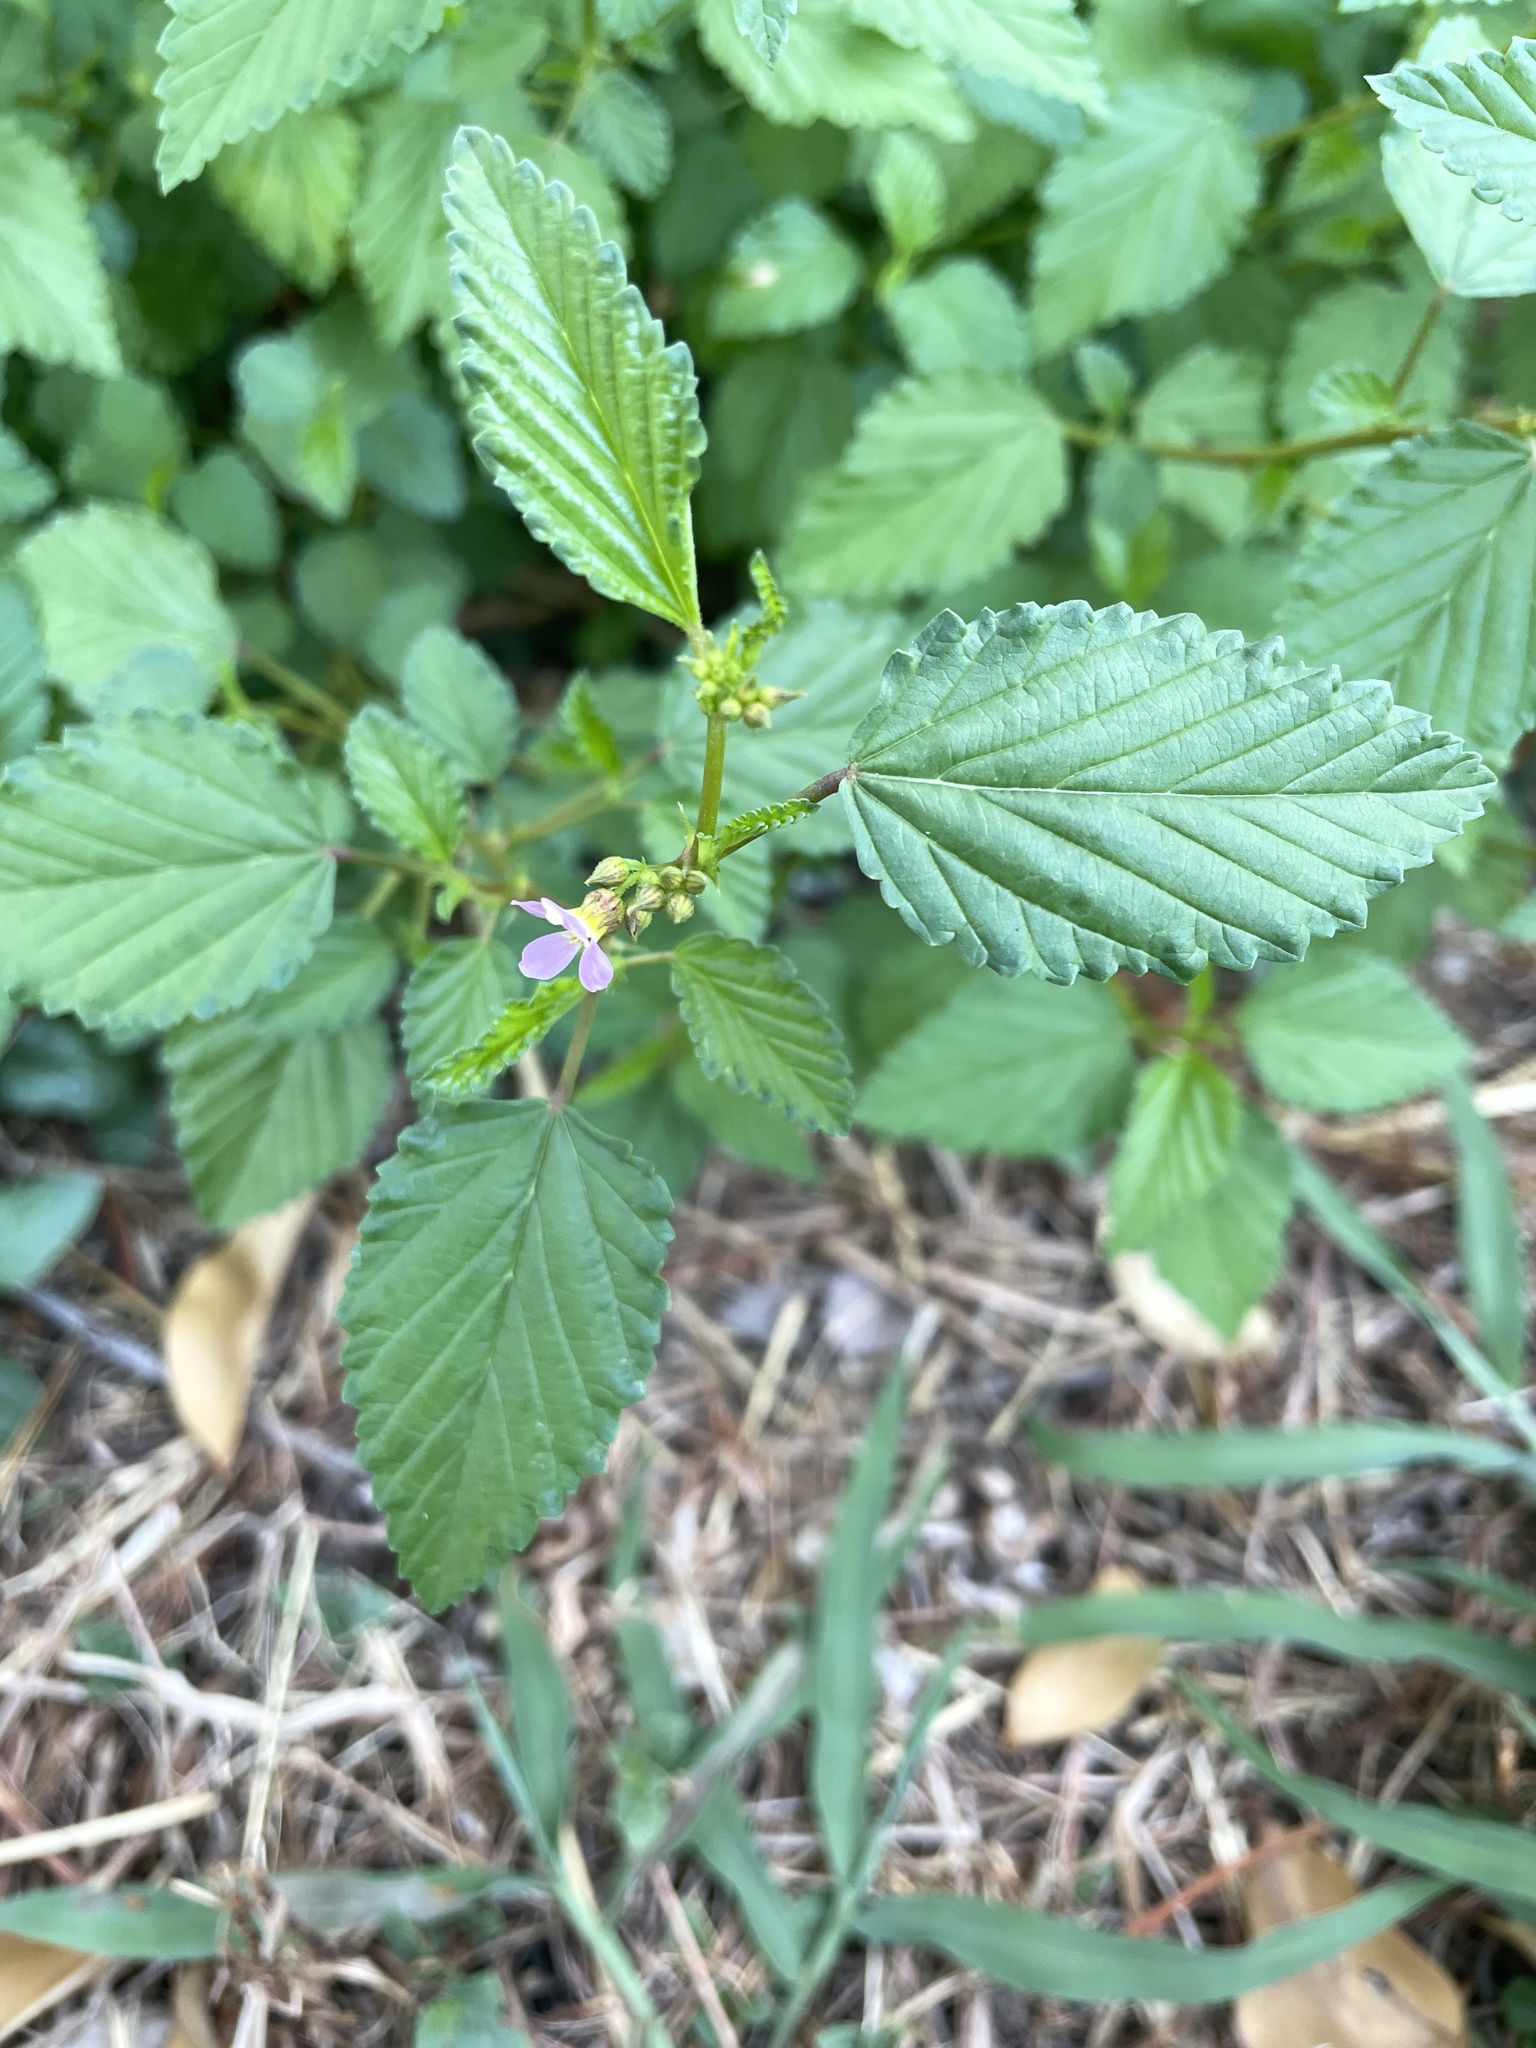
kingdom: Plantae
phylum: Tracheophyta
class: Magnoliopsida
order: Malvales
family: Malvaceae
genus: Melochia
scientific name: Melochia pyramidata
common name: Pyramidflower
